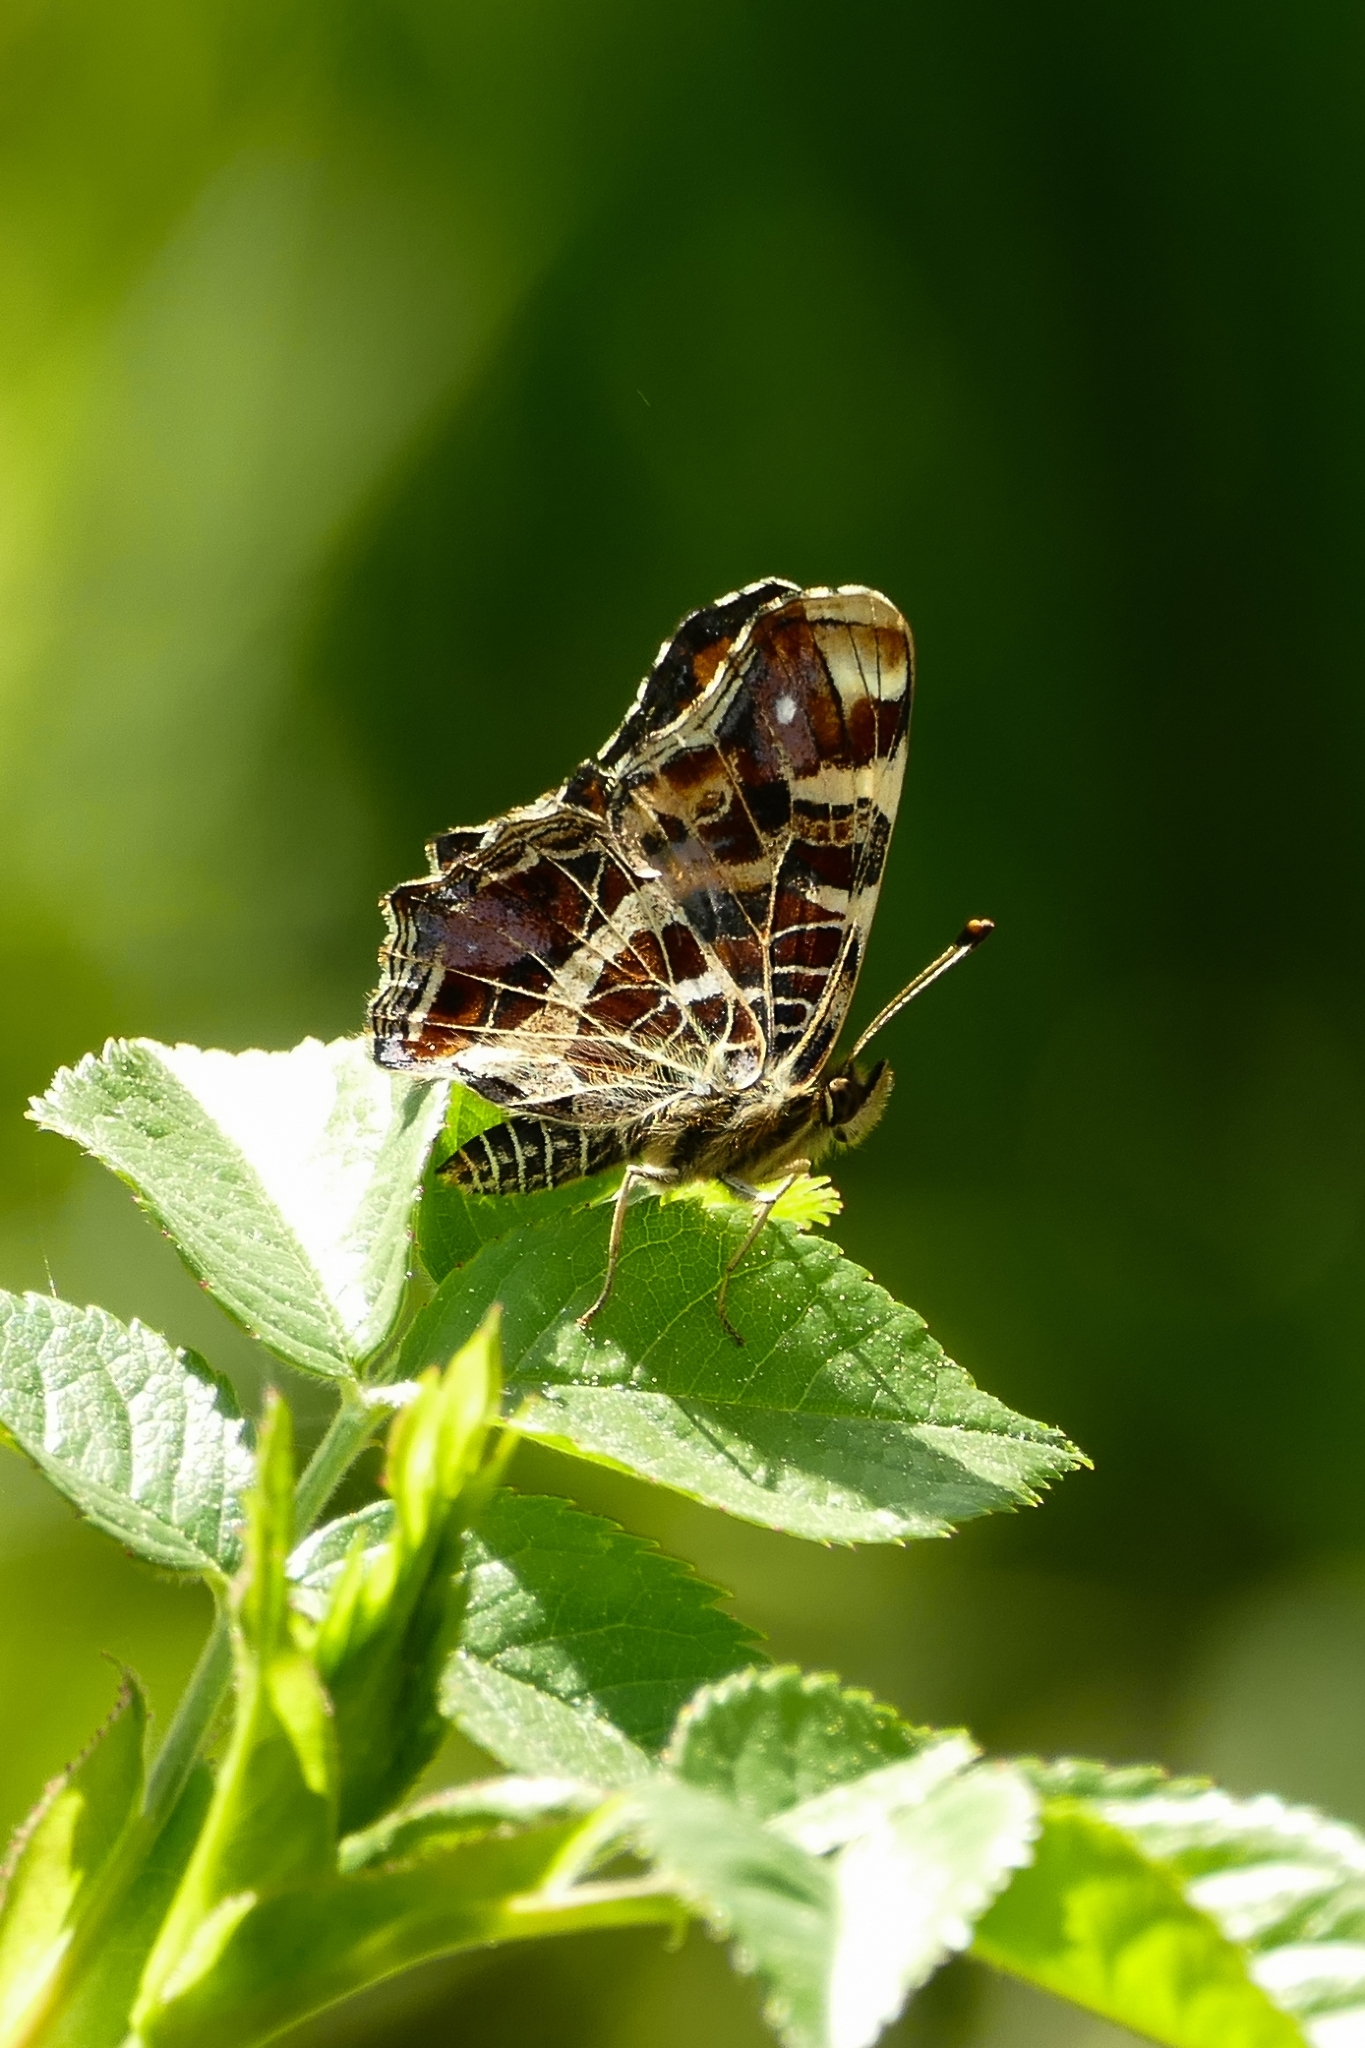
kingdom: Animalia
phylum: Arthropoda
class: Insecta
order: Lepidoptera
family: Nymphalidae
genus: Araschnia
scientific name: Araschnia levana
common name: Map butterfly
